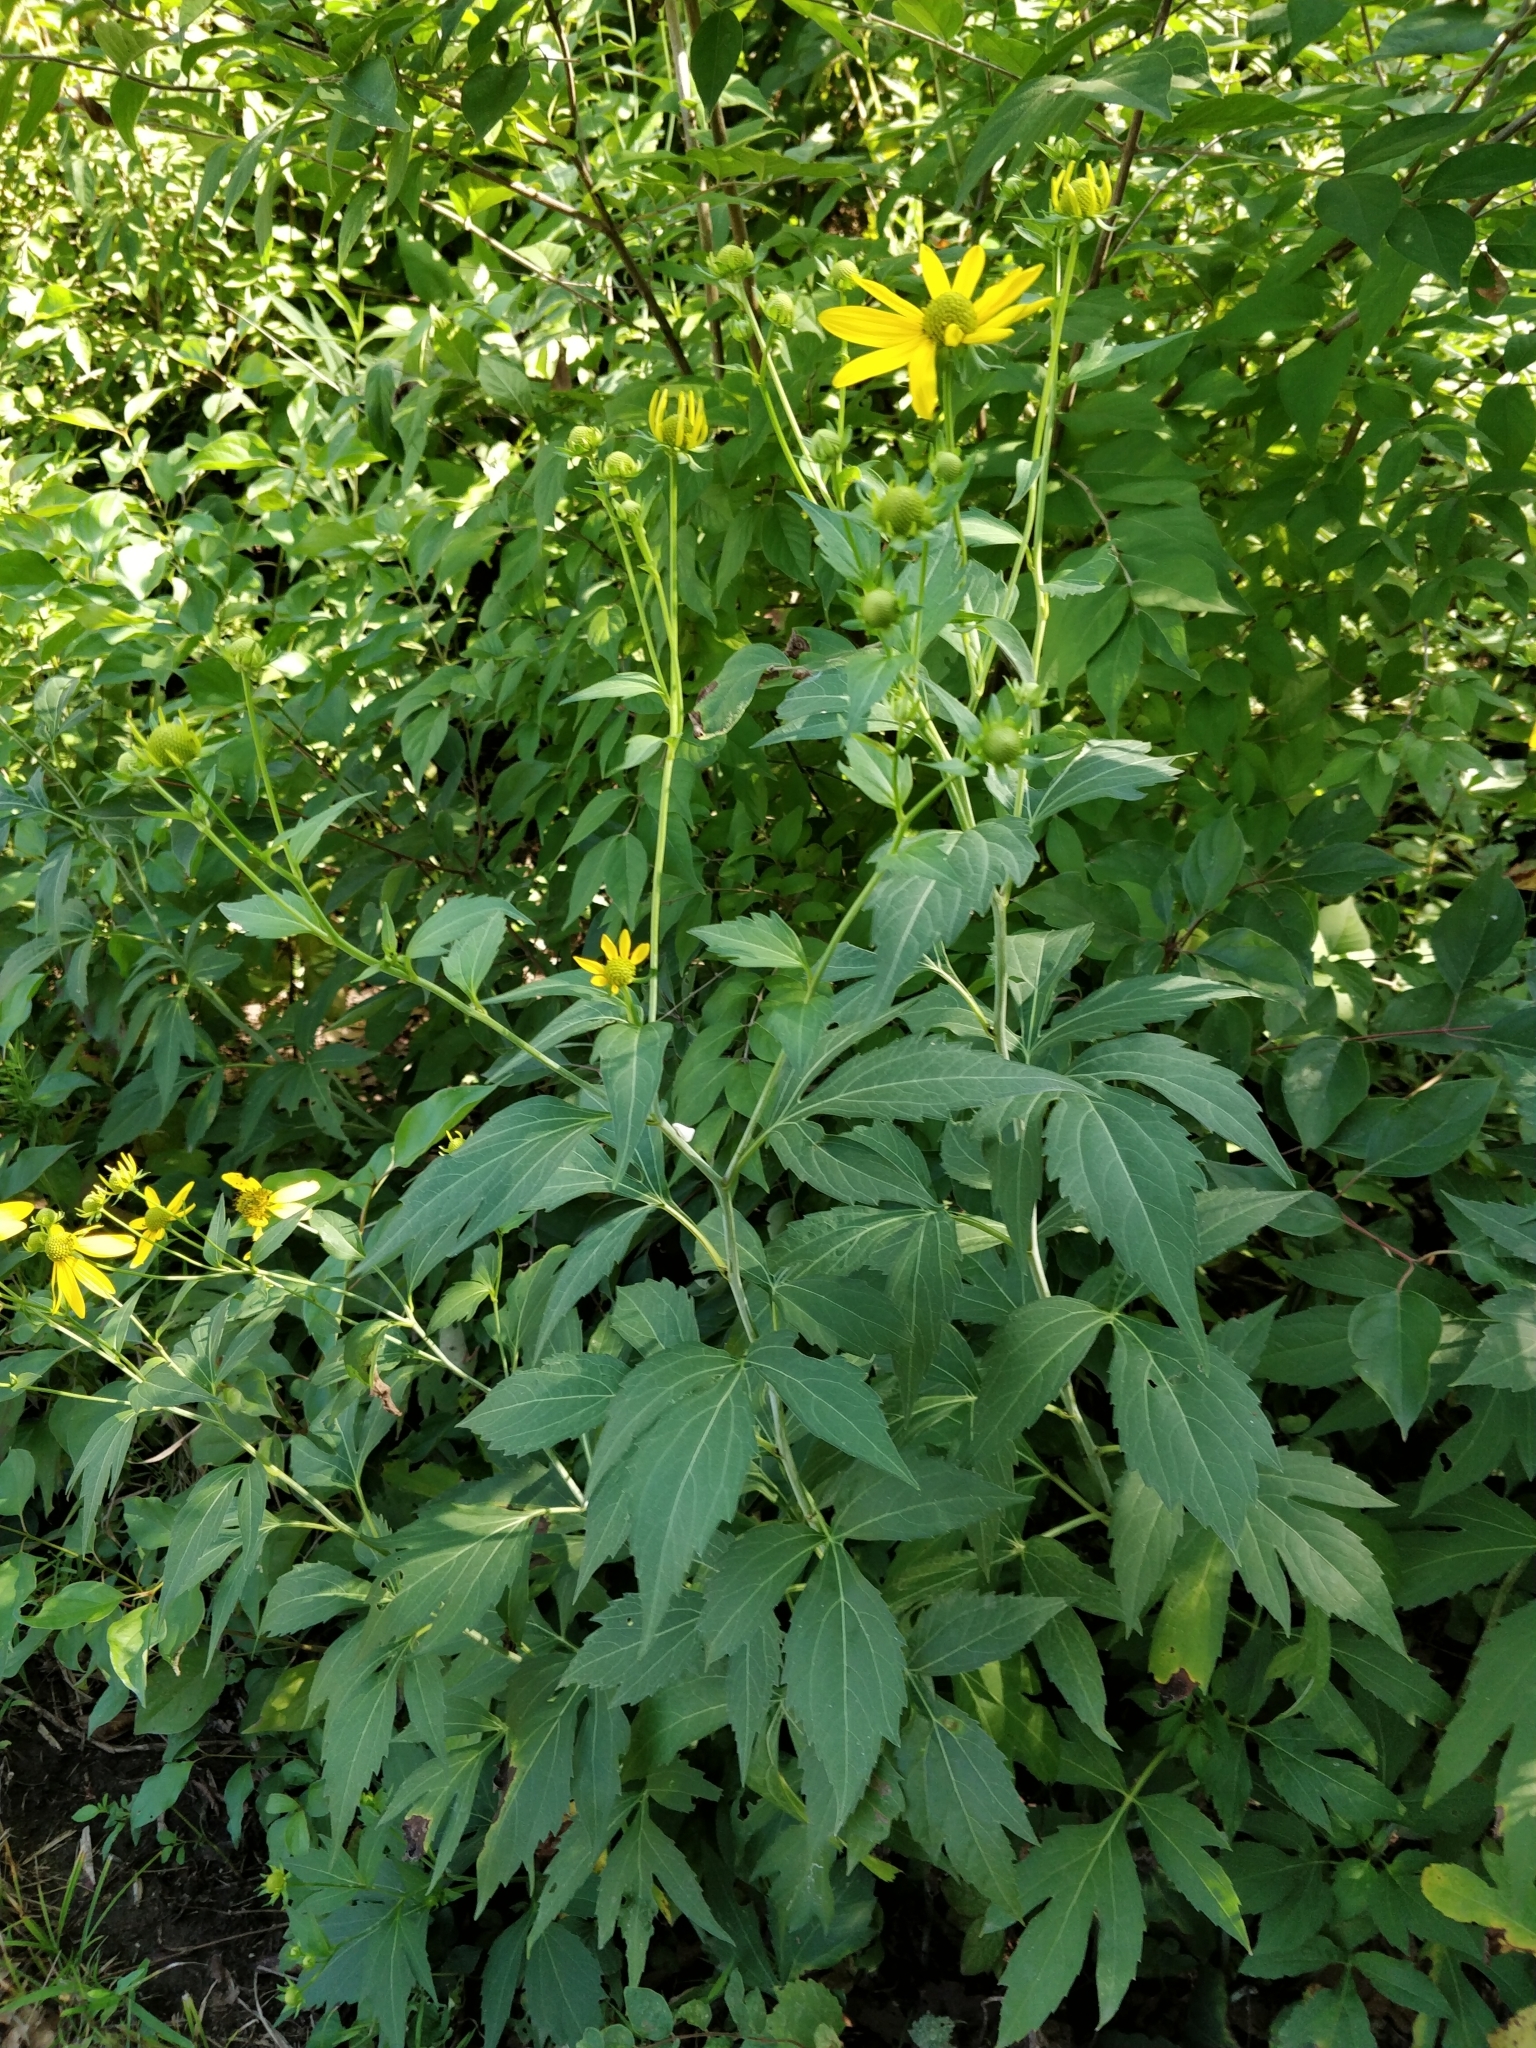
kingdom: Plantae
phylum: Tracheophyta
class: Magnoliopsida
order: Asterales
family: Asteraceae
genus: Rudbeckia
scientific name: Rudbeckia laciniata
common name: Coneflower
